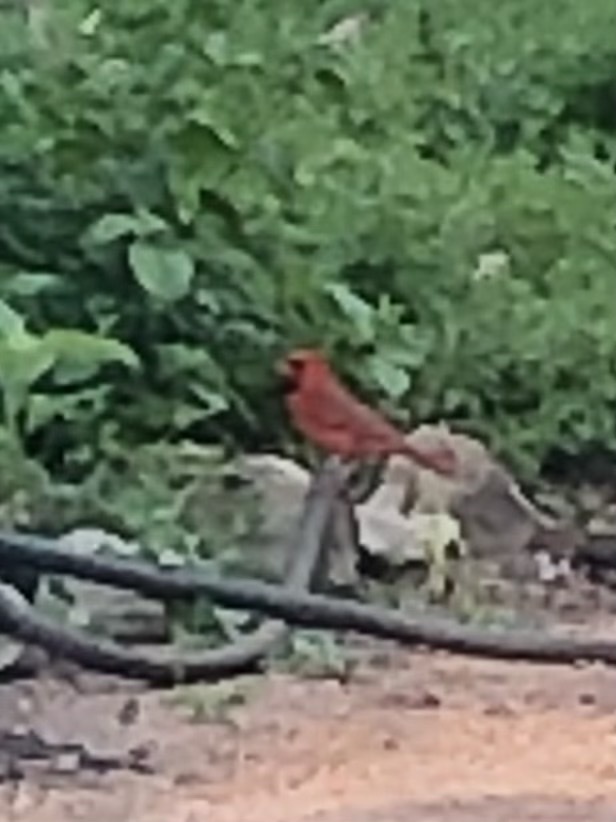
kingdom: Animalia
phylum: Chordata
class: Aves
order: Passeriformes
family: Cardinalidae
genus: Cardinalis
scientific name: Cardinalis cardinalis
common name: Northern cardinal
